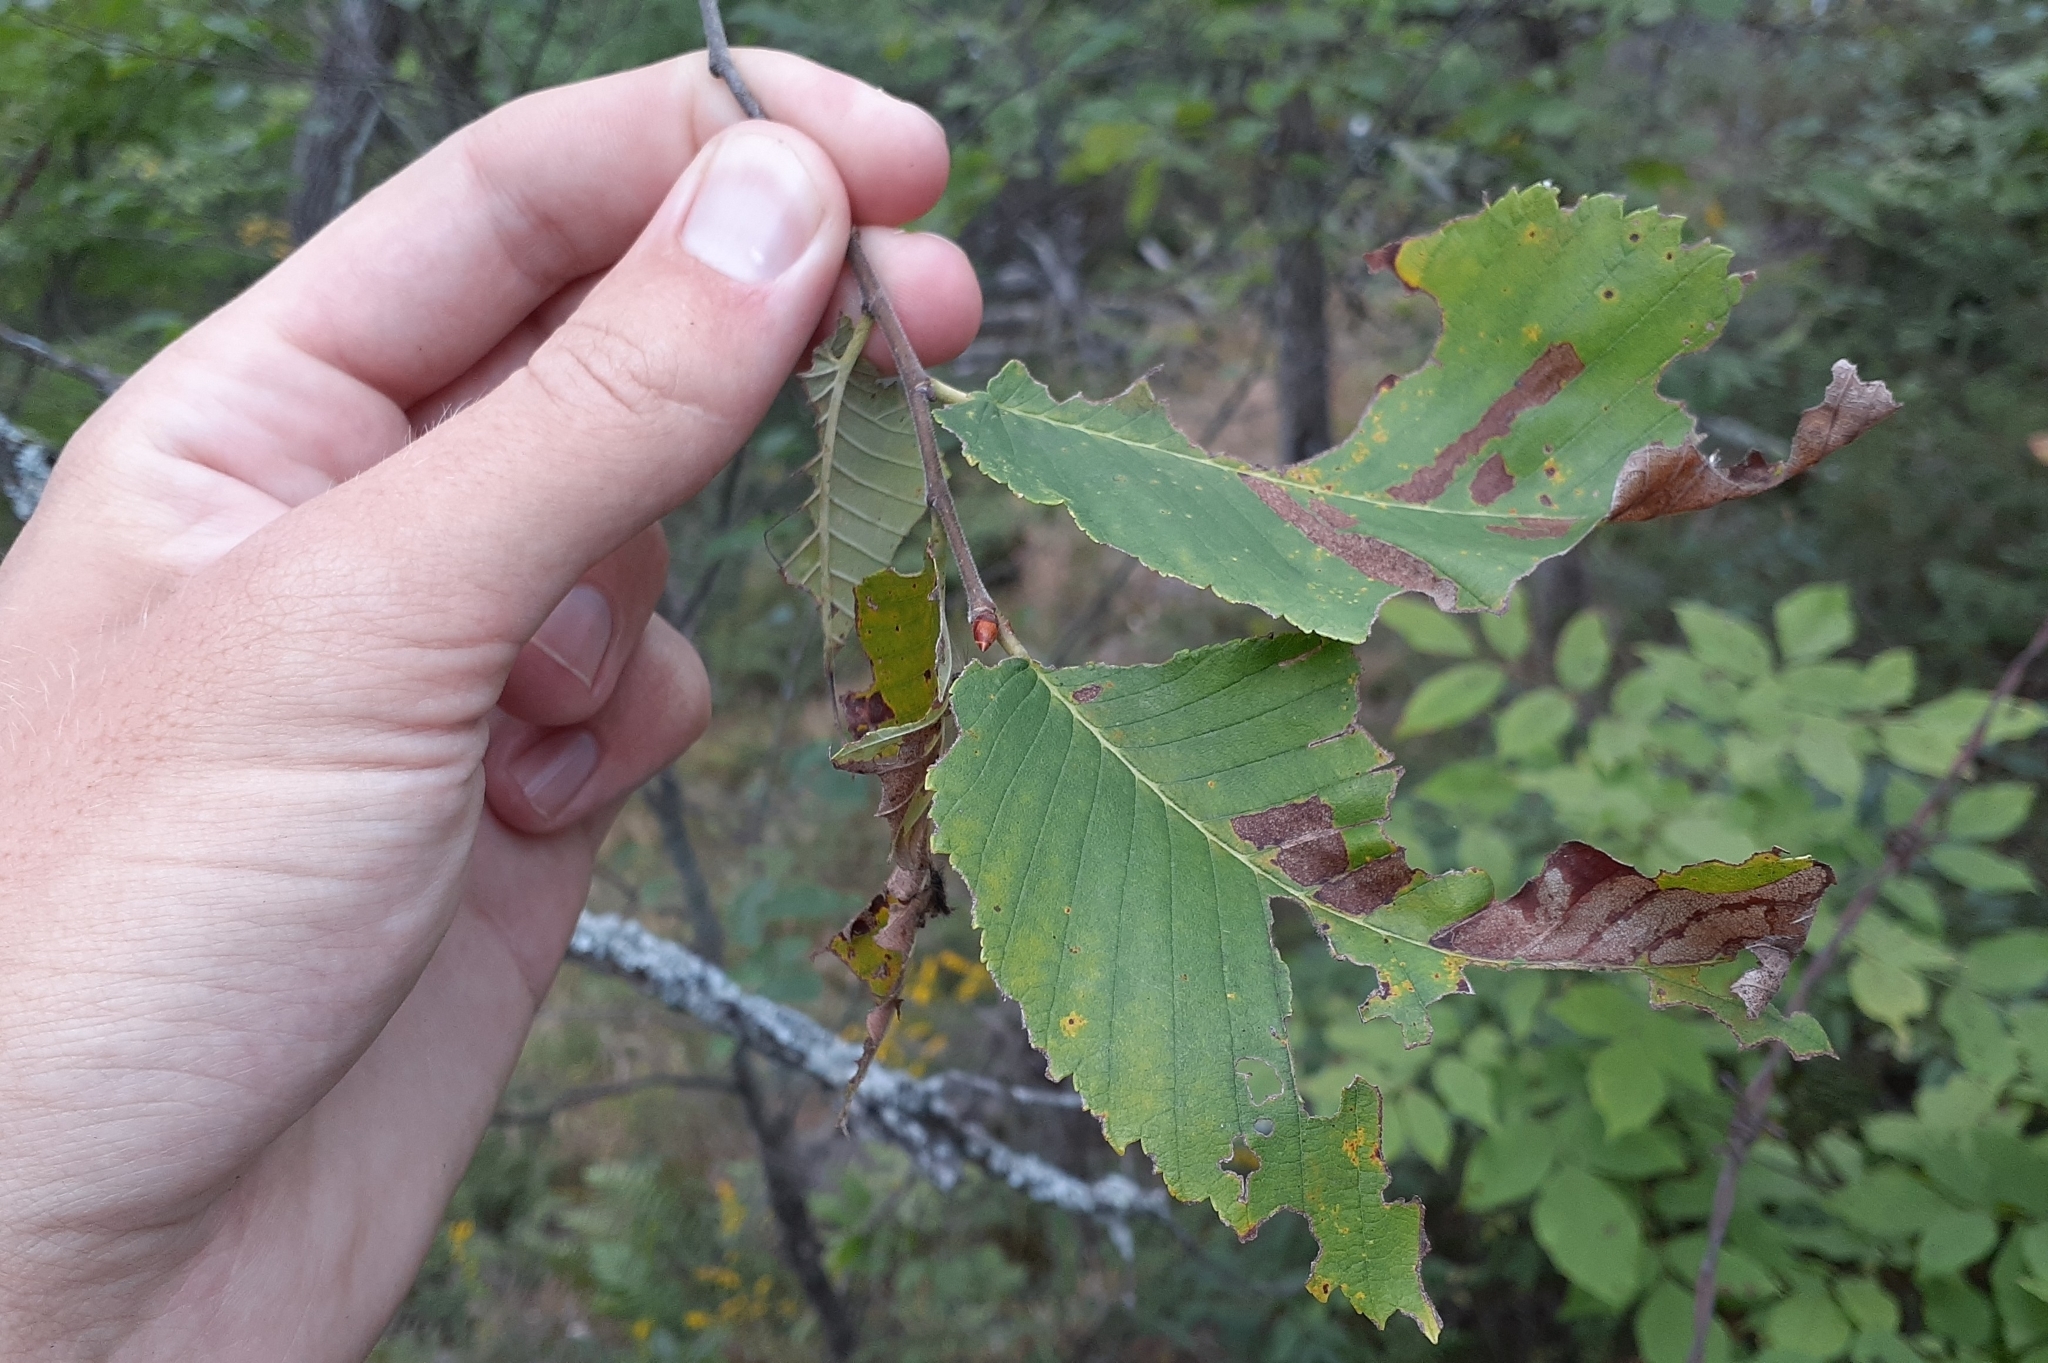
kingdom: Plantae
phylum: Tracheophyta
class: Magnoliopsida
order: Rosales
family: Ulmaceae
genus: Ulmus
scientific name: Ulmus thomasii
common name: Rock elm
